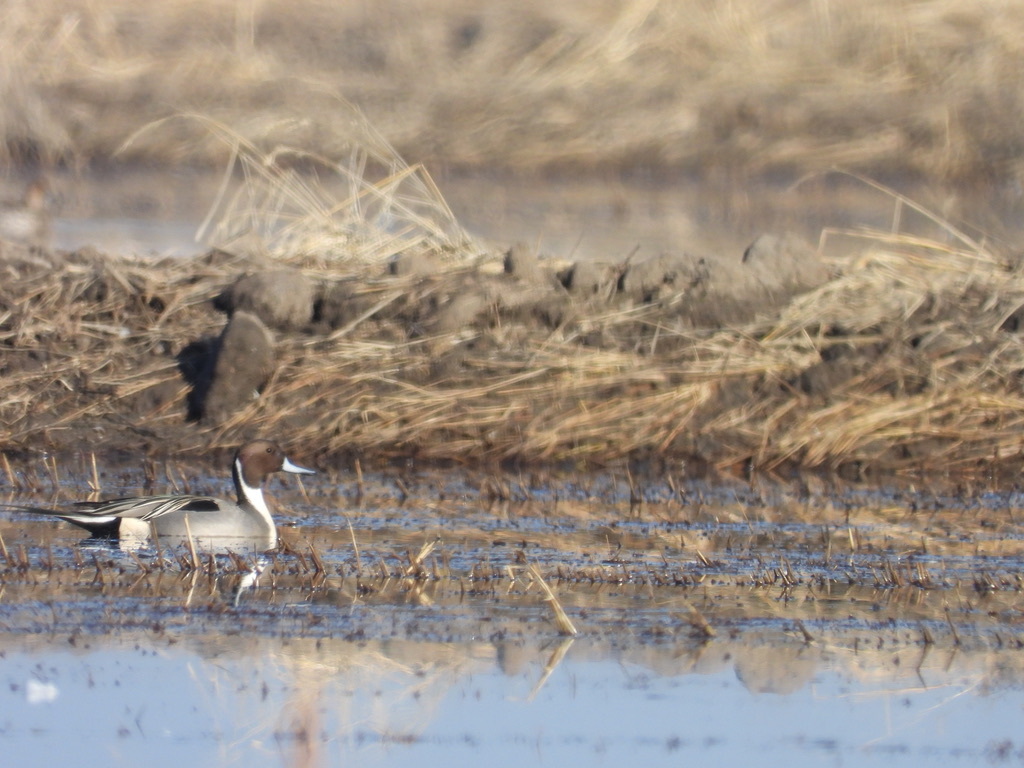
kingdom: Animalia
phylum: Chordata
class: Aves
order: Anseriformes
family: Anatidae
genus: Anas
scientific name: Anas acuta
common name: Northern pintail
